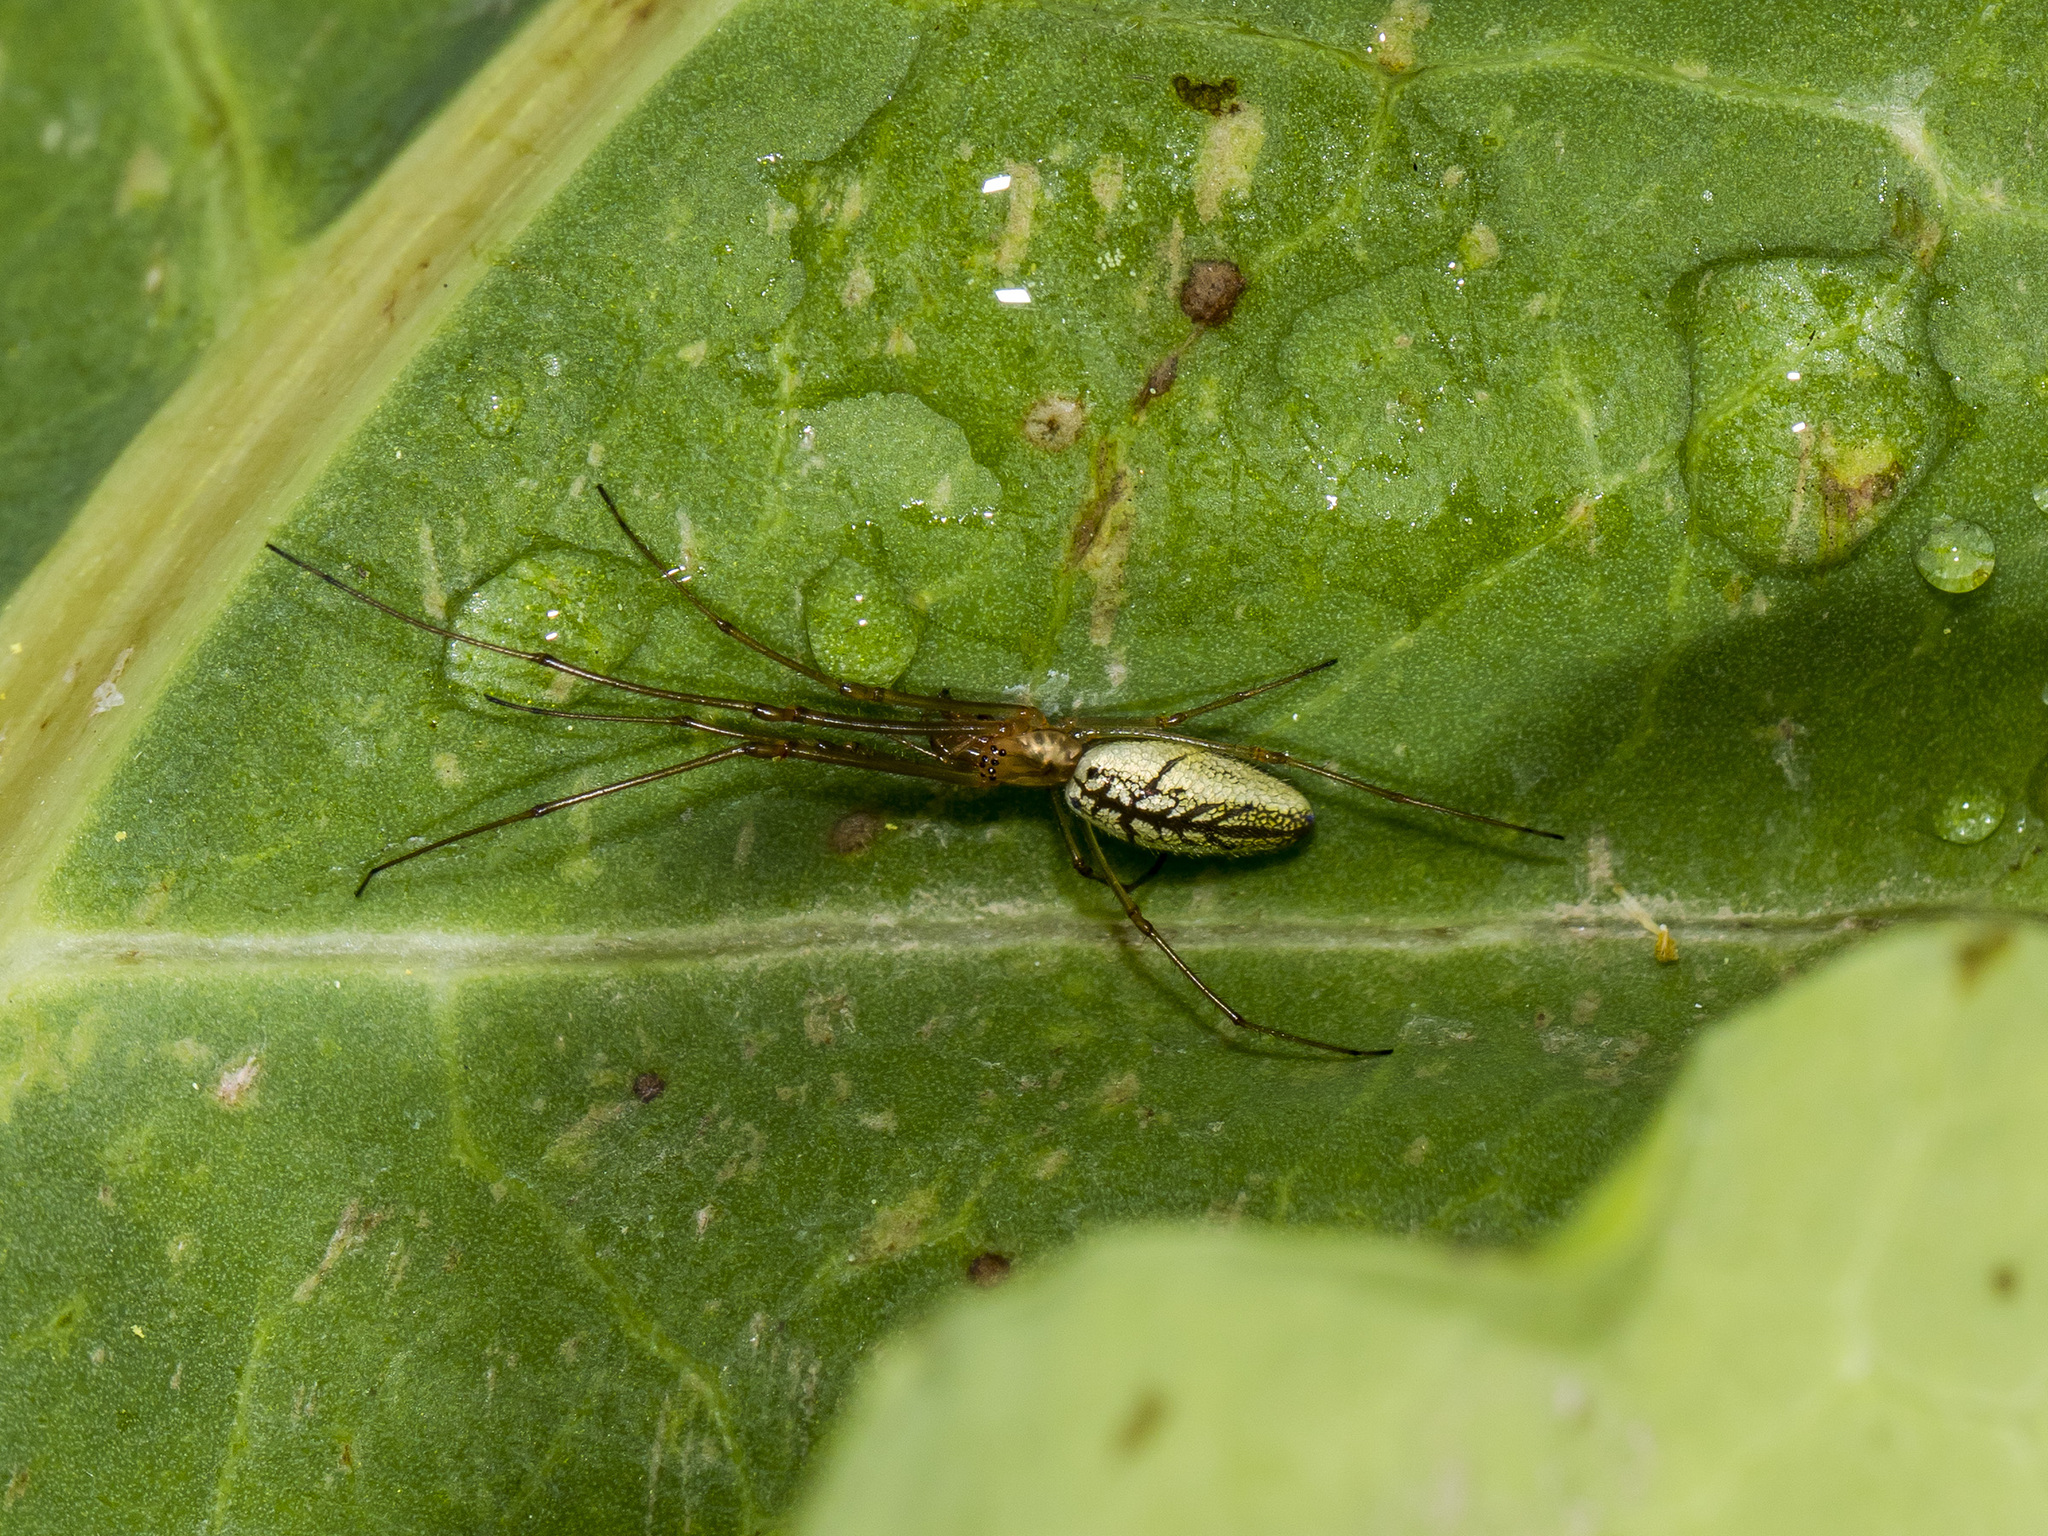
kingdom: Animalia
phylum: Arthropoda
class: Arachnida
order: Araneae
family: Tetragnathidae
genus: Tetragnatha
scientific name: Tetragnatha pinicola
